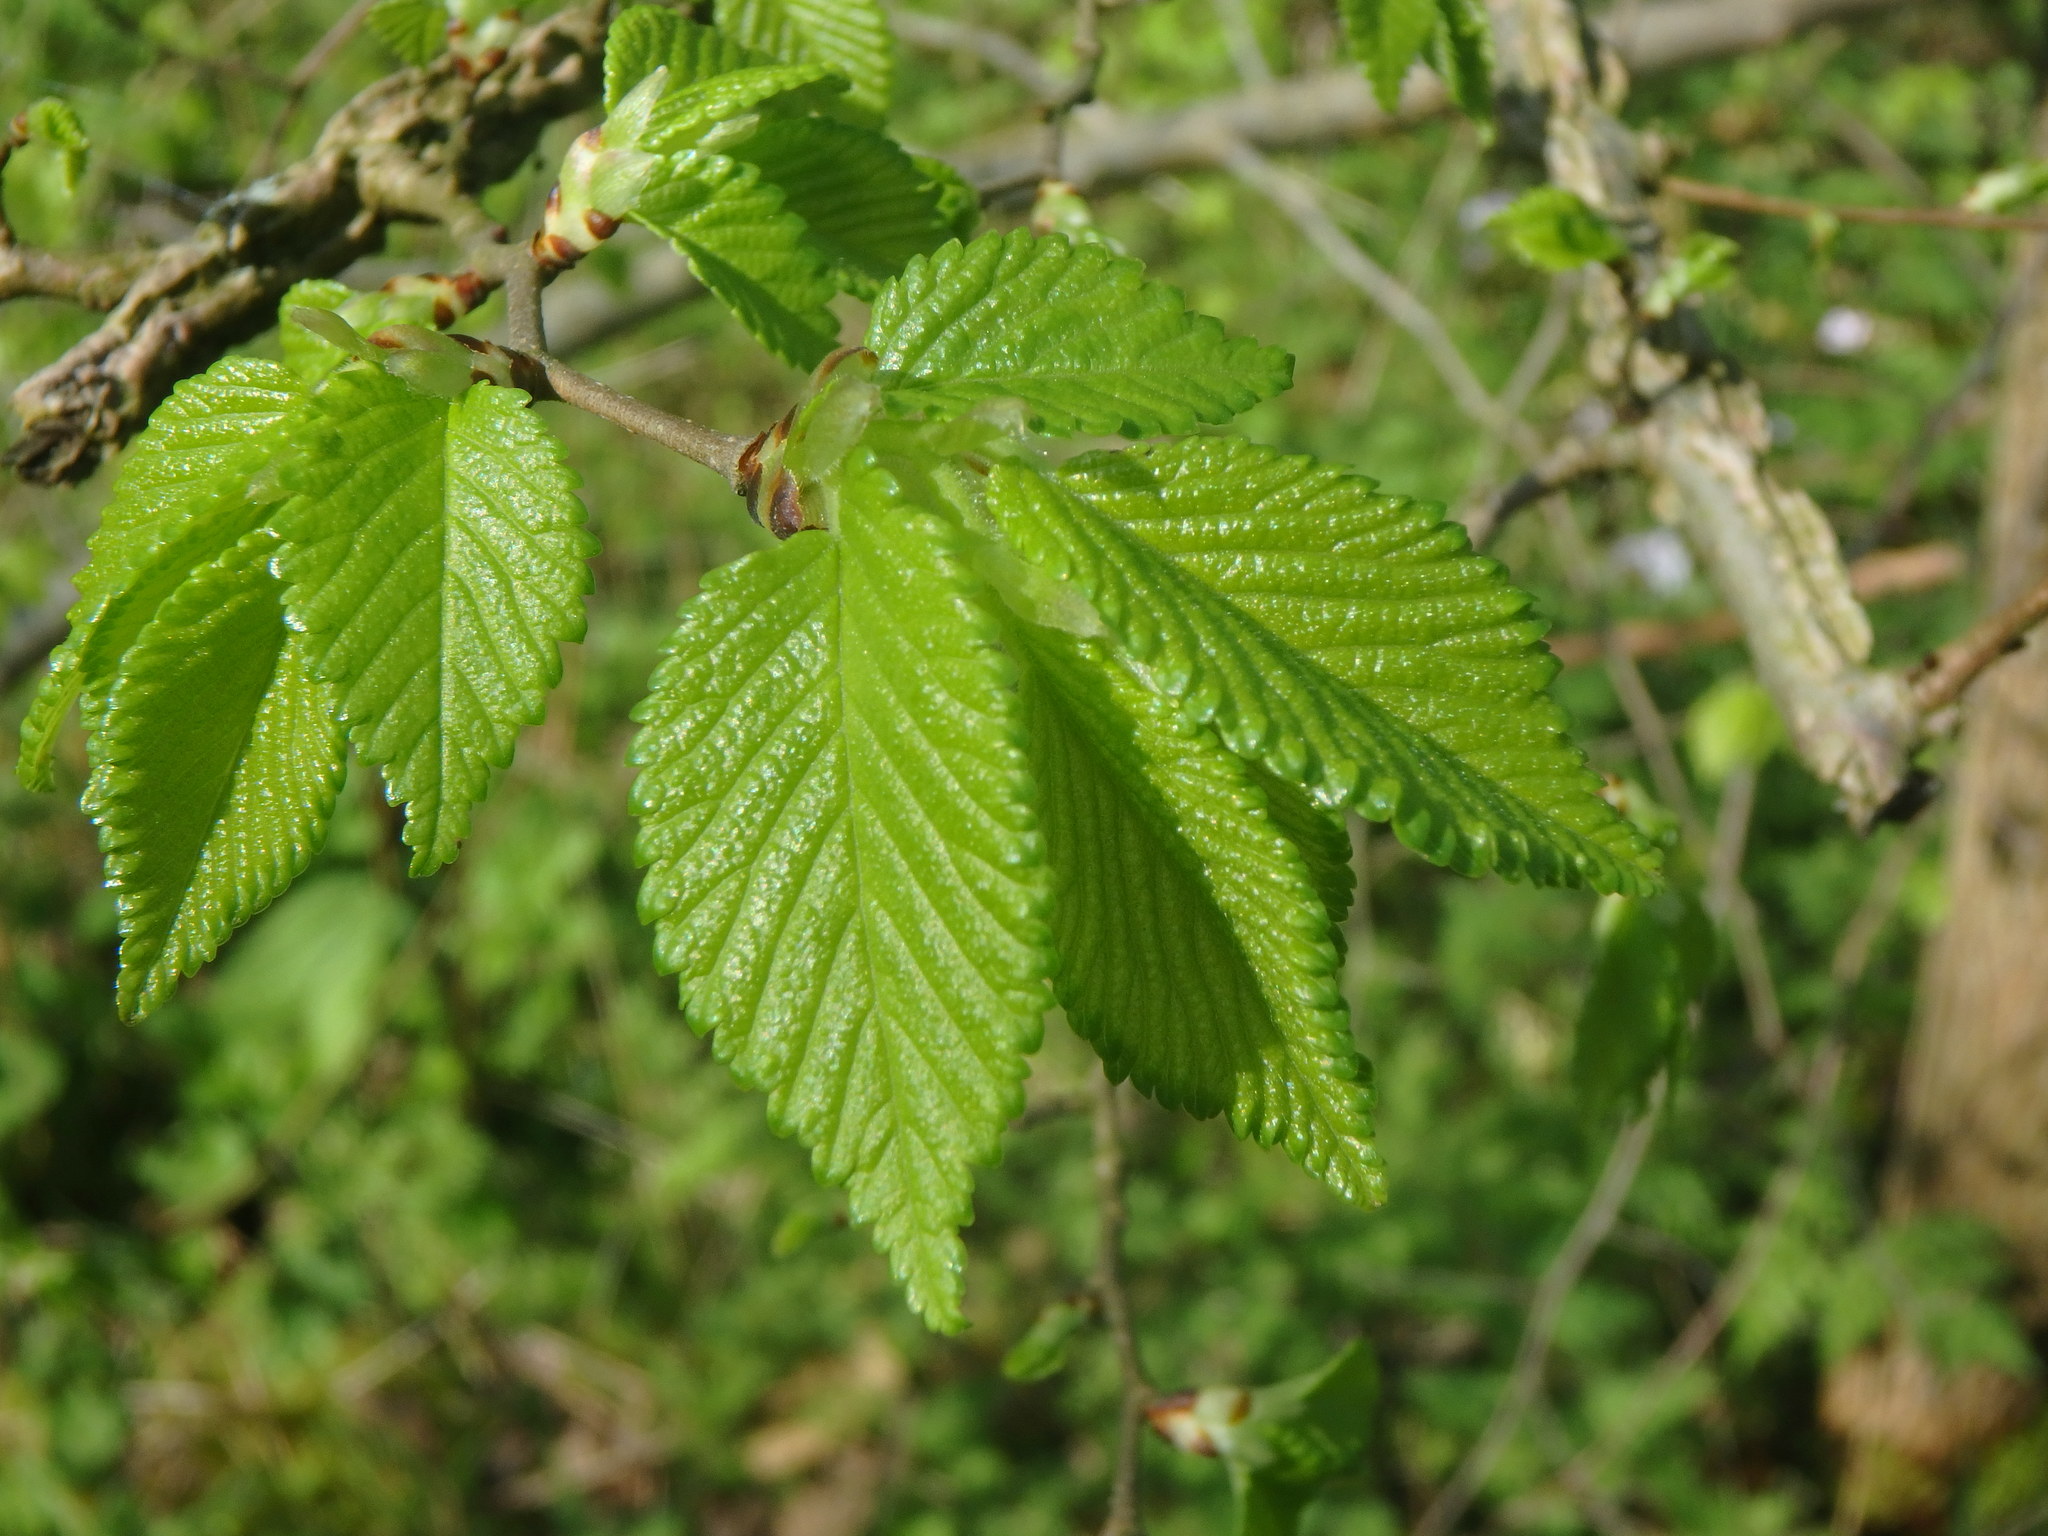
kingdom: Plantae
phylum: Tracheophyta
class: Magnoliopsida
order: Rosales
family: Ulmaceae
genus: Ulmus
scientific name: Ulmus minor
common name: Small-leaved elm
